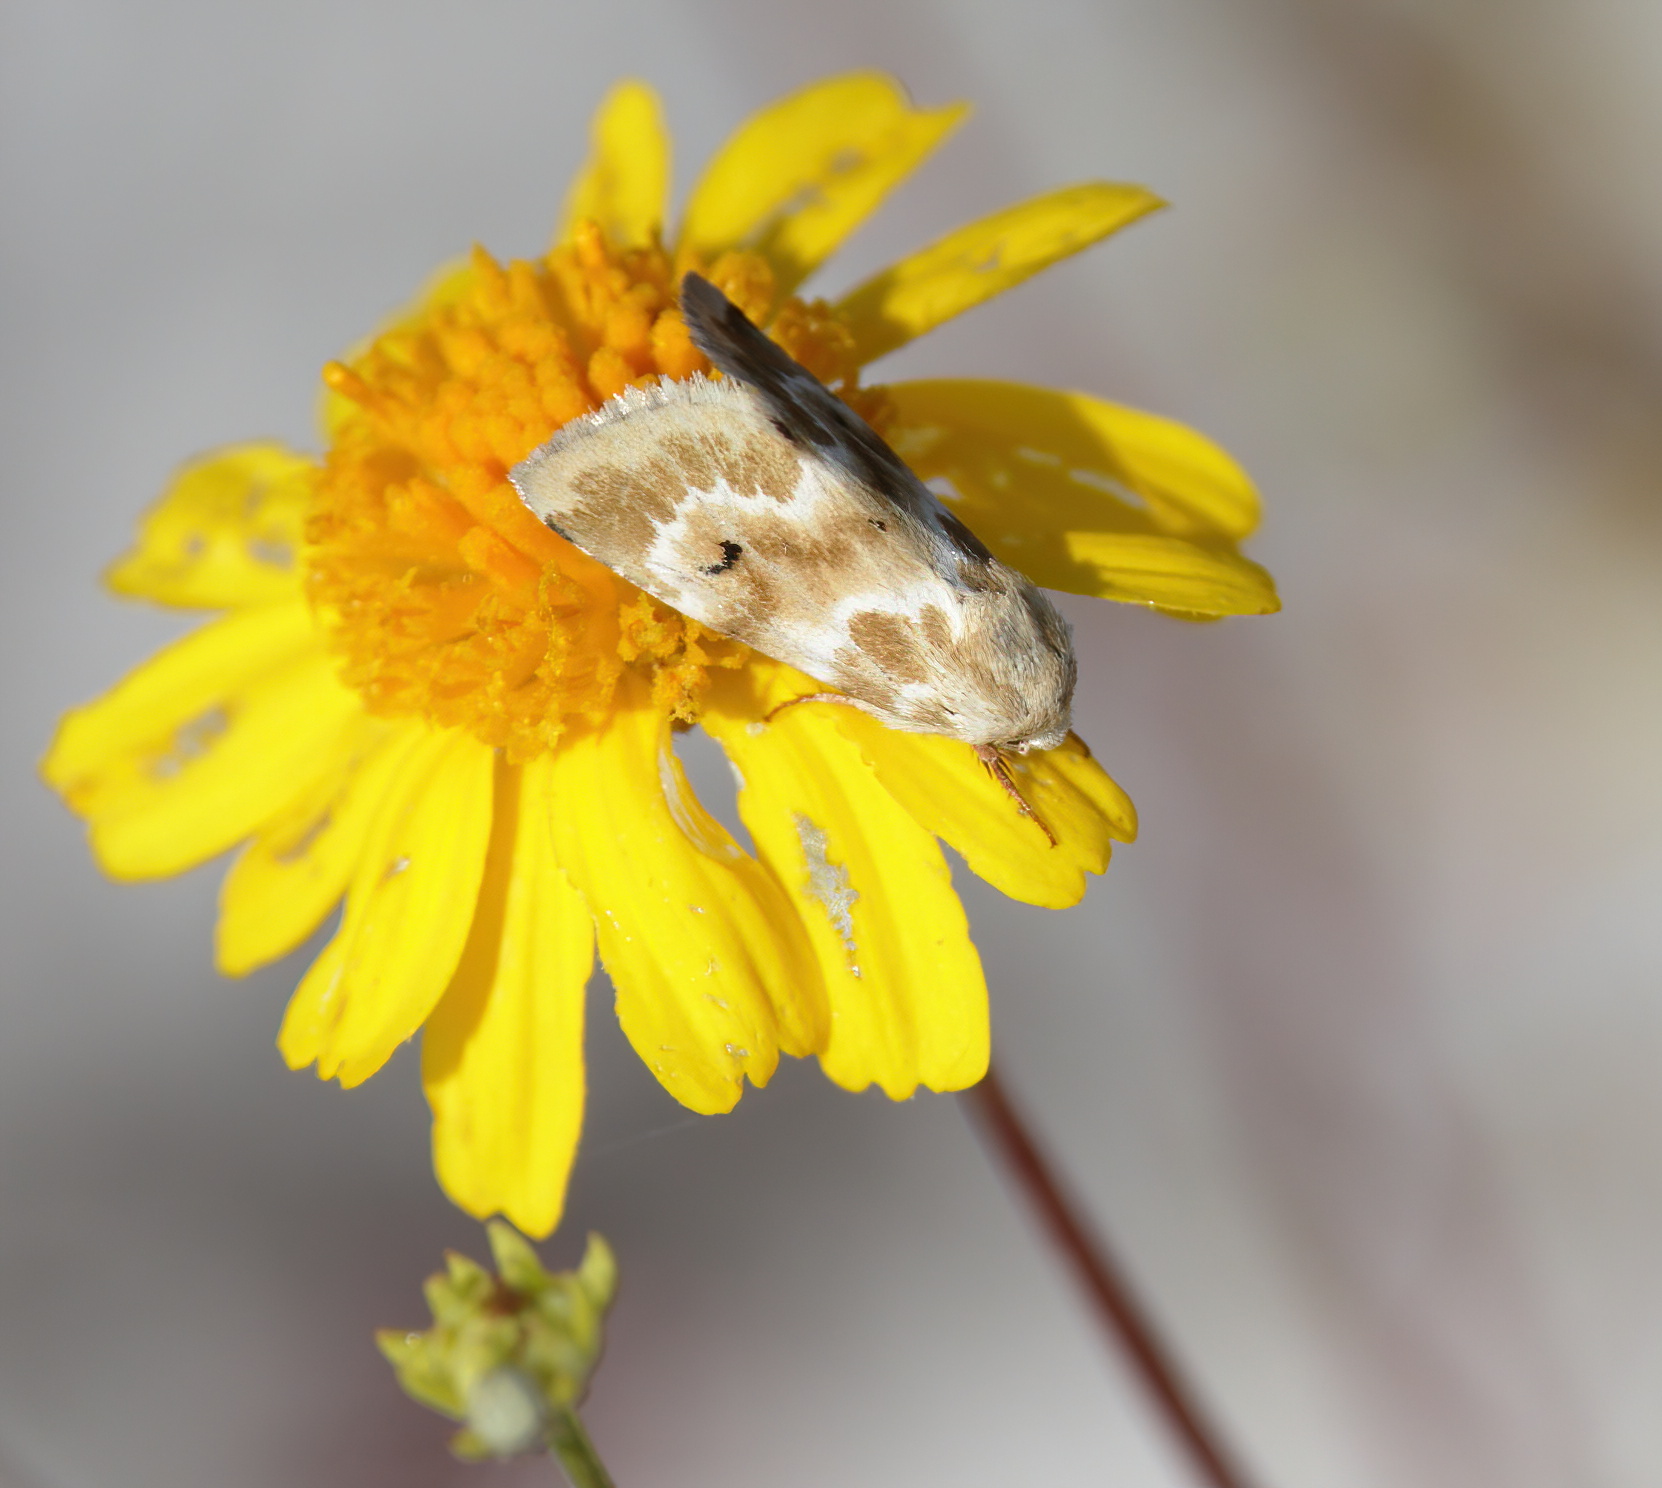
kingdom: Animalia
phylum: Arthropoda
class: Insecta
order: Lepidoptera
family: Noctuidae
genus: Schinia
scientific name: Schinia nundina
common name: Goldenrod flower moth
